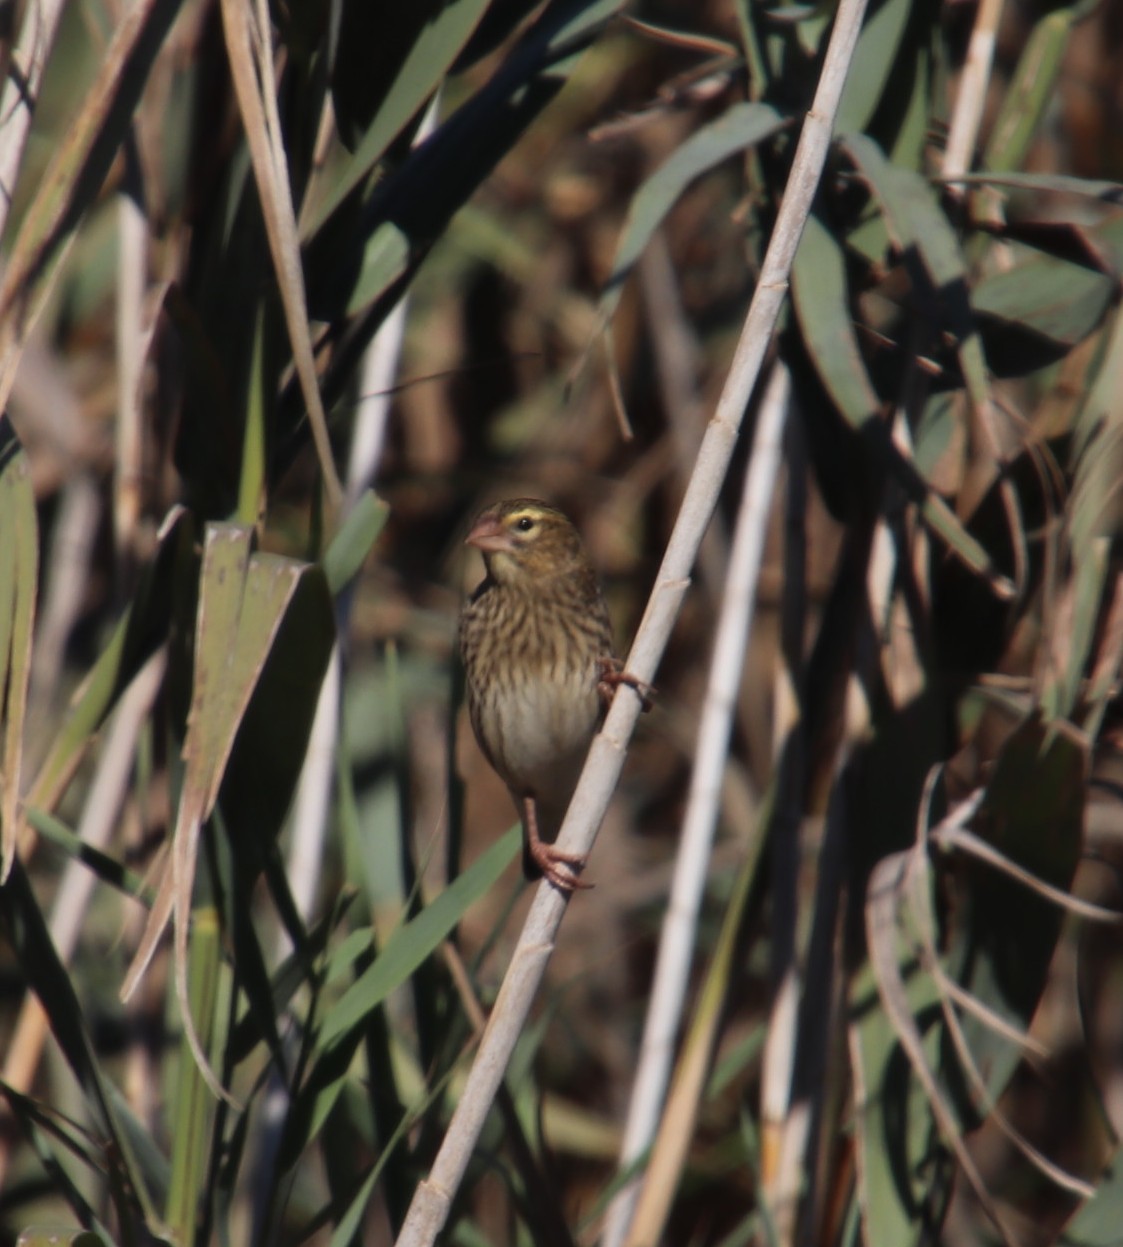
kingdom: Animalia
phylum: Chordata
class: Aves
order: Passeriformes
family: Ploceidae
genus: Euplectes
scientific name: Euplectes orix
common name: Southern red bishop
